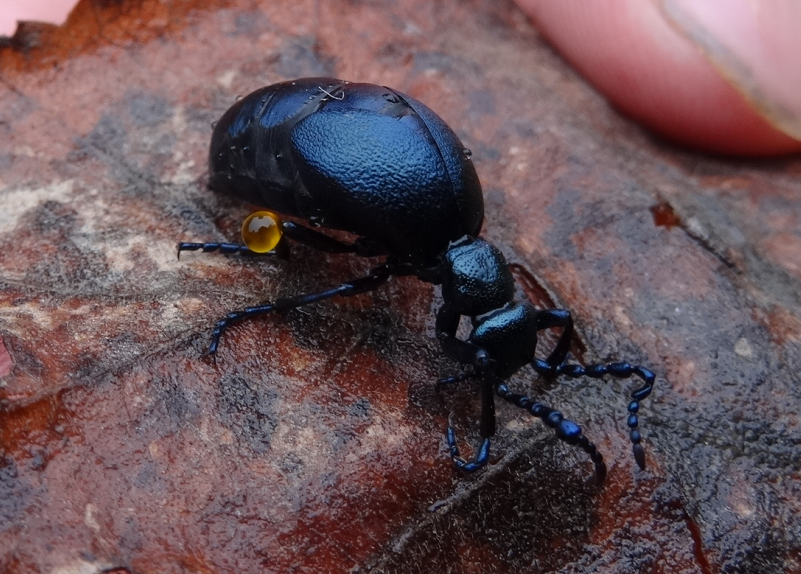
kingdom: Animalia
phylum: Arthropoda
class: Insecta
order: Coleoptera
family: Meloidae
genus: Meloe
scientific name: Meloe violaceus
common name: Violet oil-beetle
